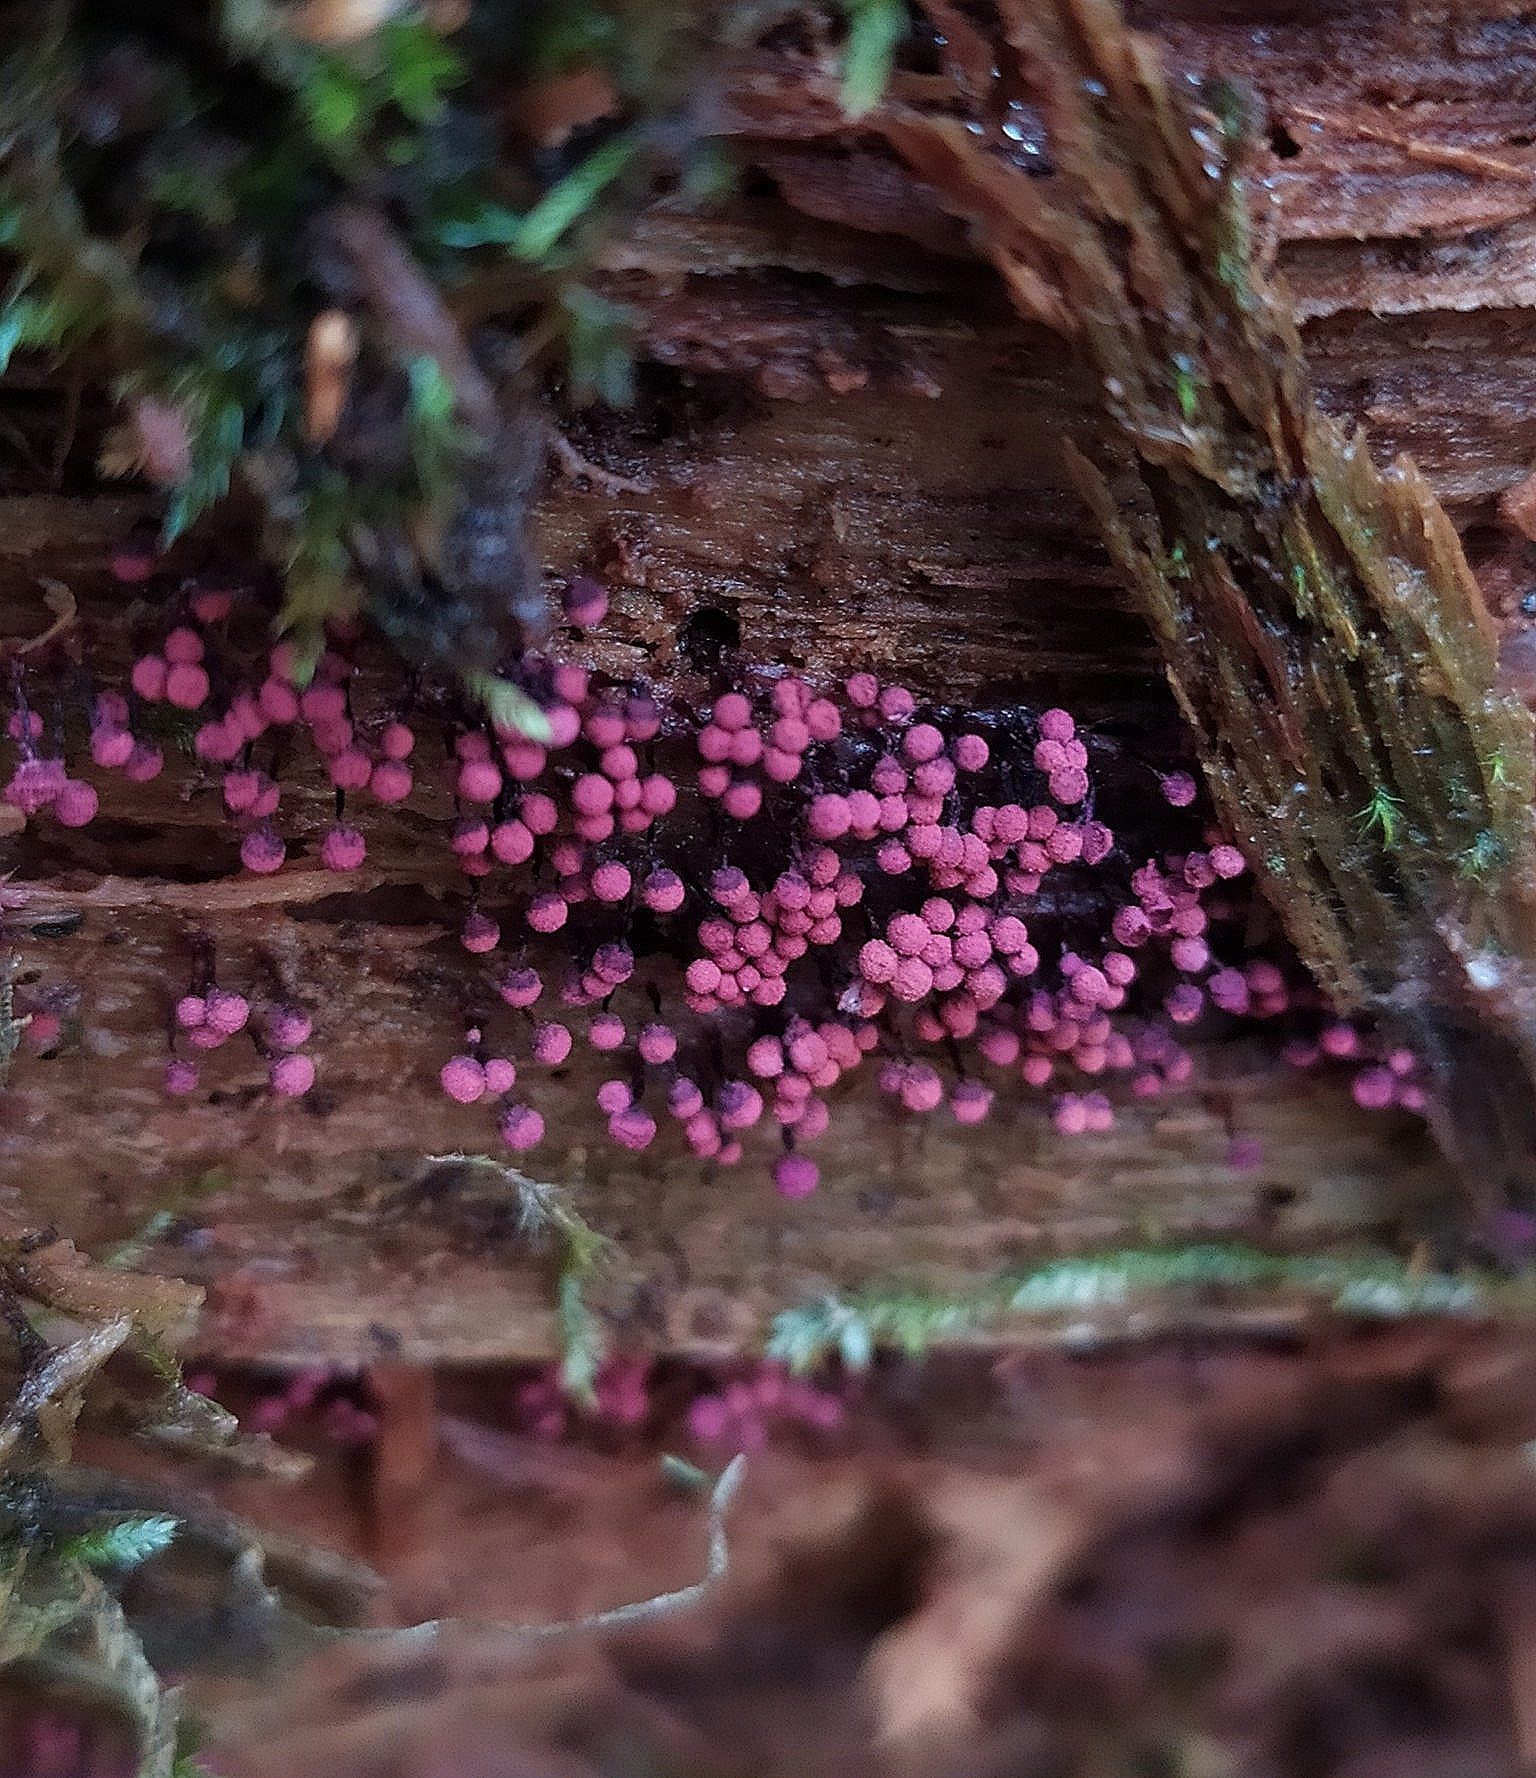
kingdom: Protozoa
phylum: Mycetozoa
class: Myxomycetes
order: Cribrariales
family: Cribrariaceae
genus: Cribraria
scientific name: Cribraria purpurea
